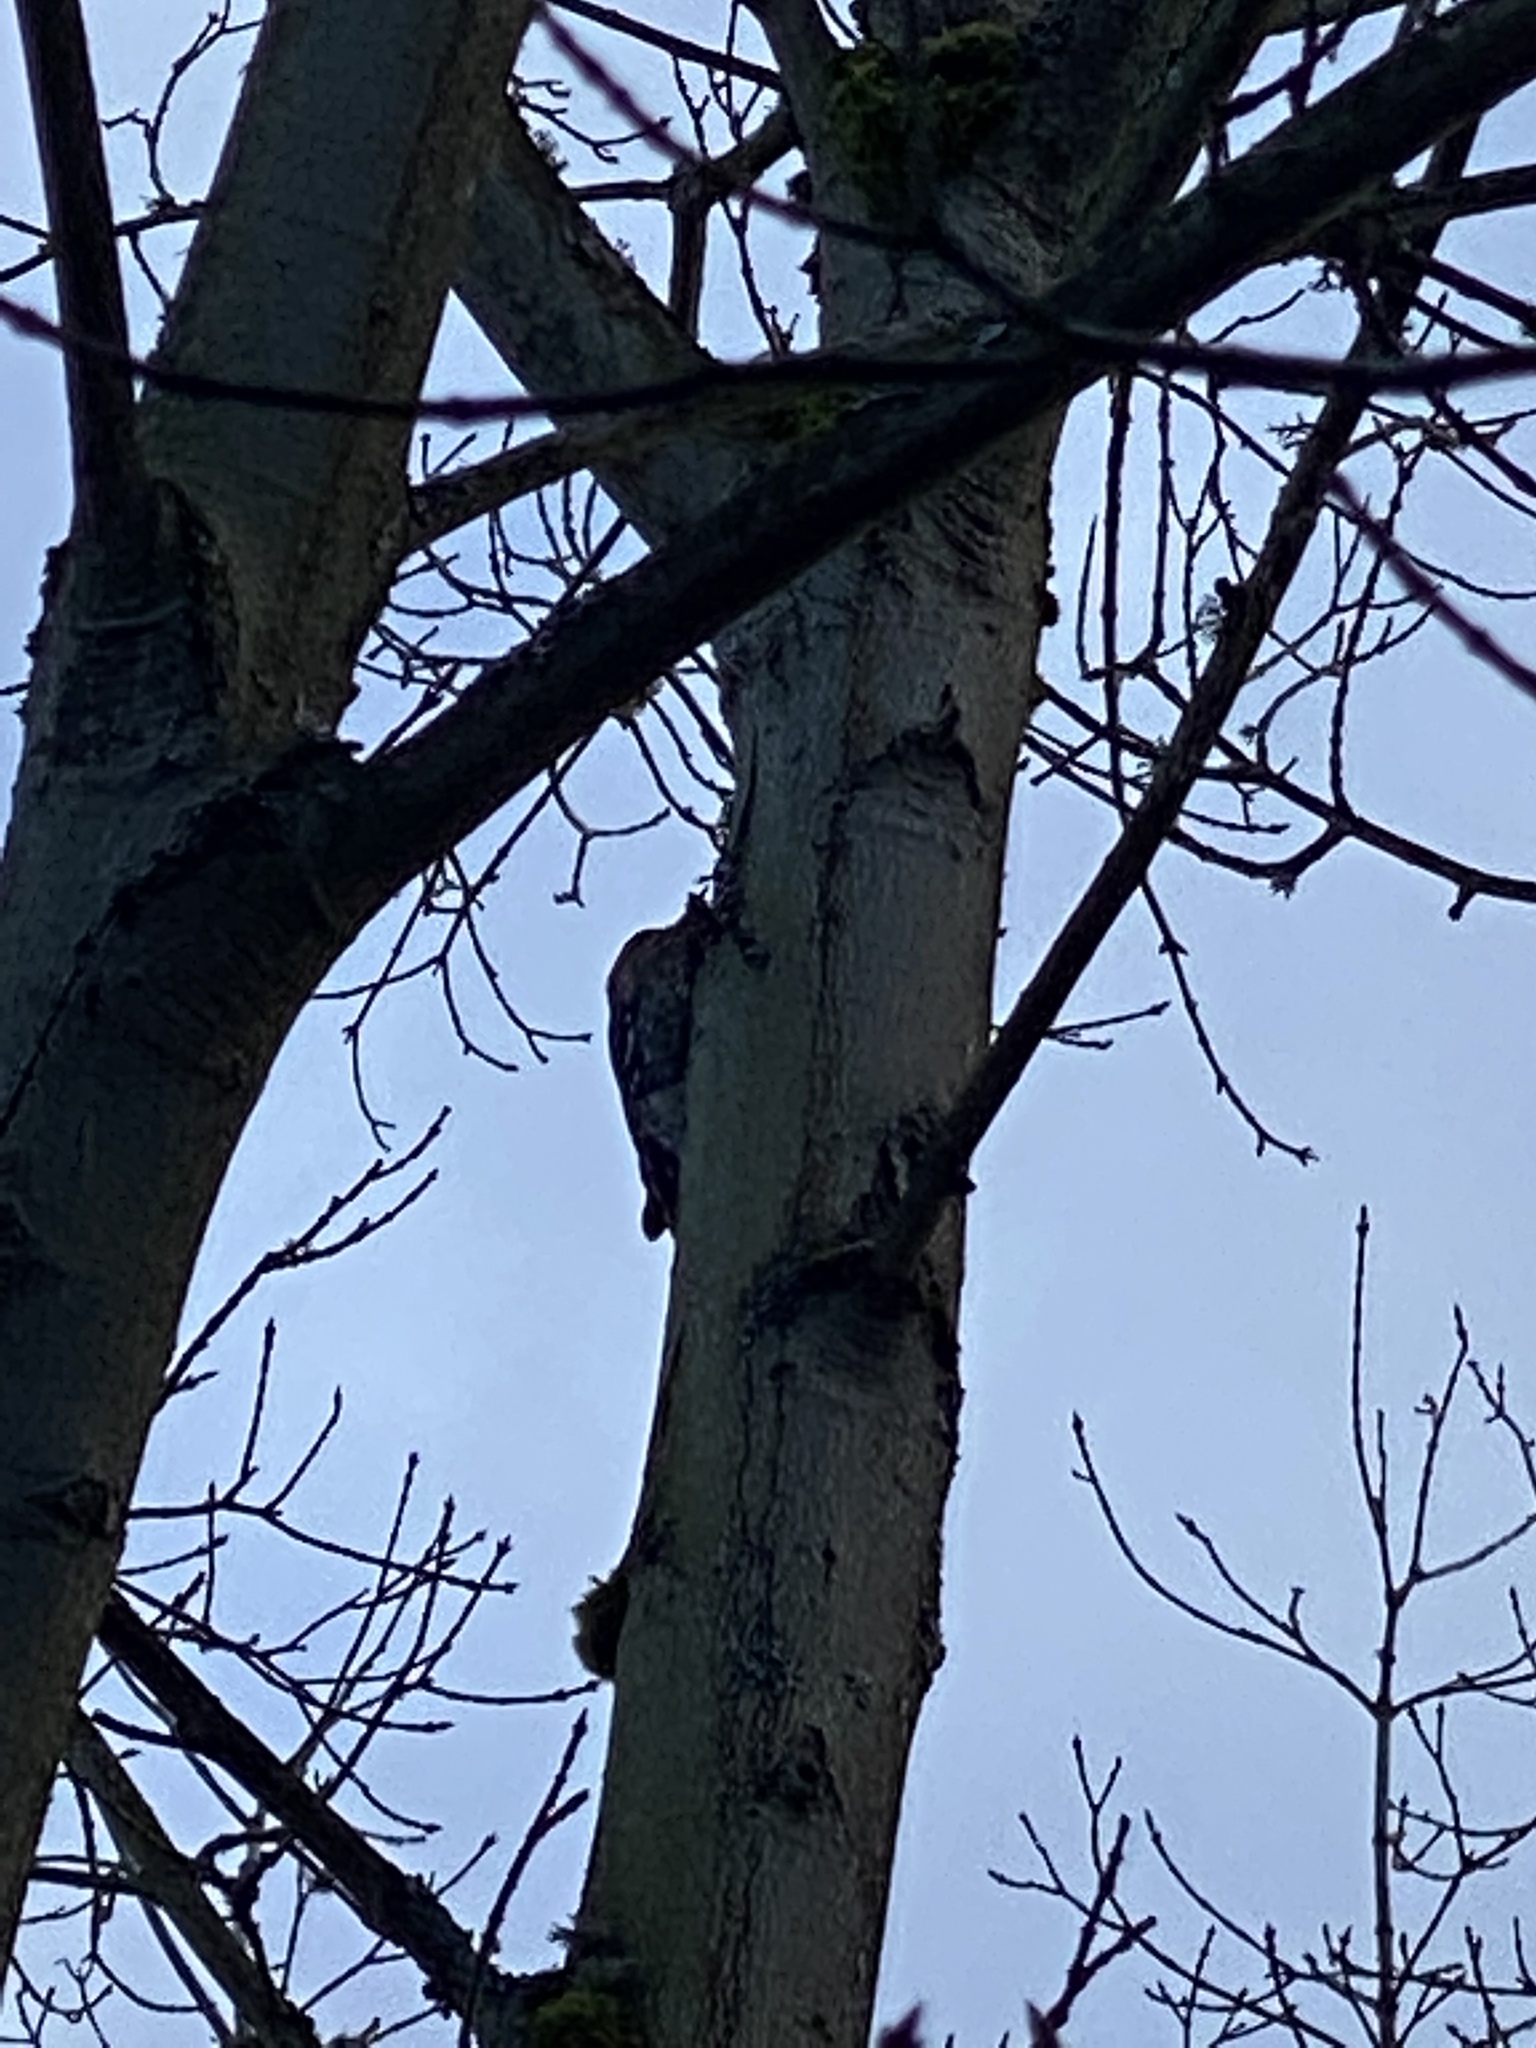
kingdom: Animalia
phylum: Chordata
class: Aves
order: Piciformes
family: Picidae
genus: Sphyrapicus
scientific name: Sphyrapicus ruber
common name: Red-breasted sapsucker
